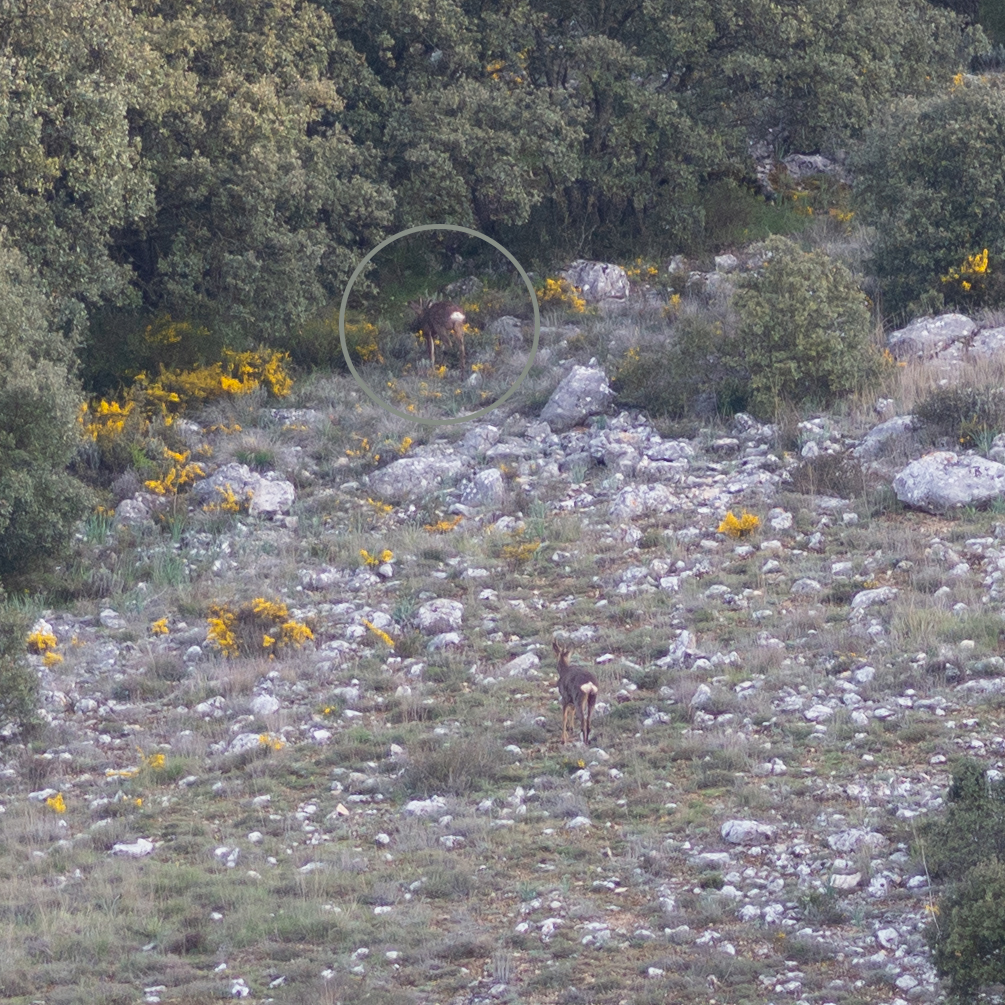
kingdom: Animalia
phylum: Chordata
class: Mammalia
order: Artiodactyla
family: Cervidae
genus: Capreolus
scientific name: Capreolus capreolus
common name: Western roe deer
